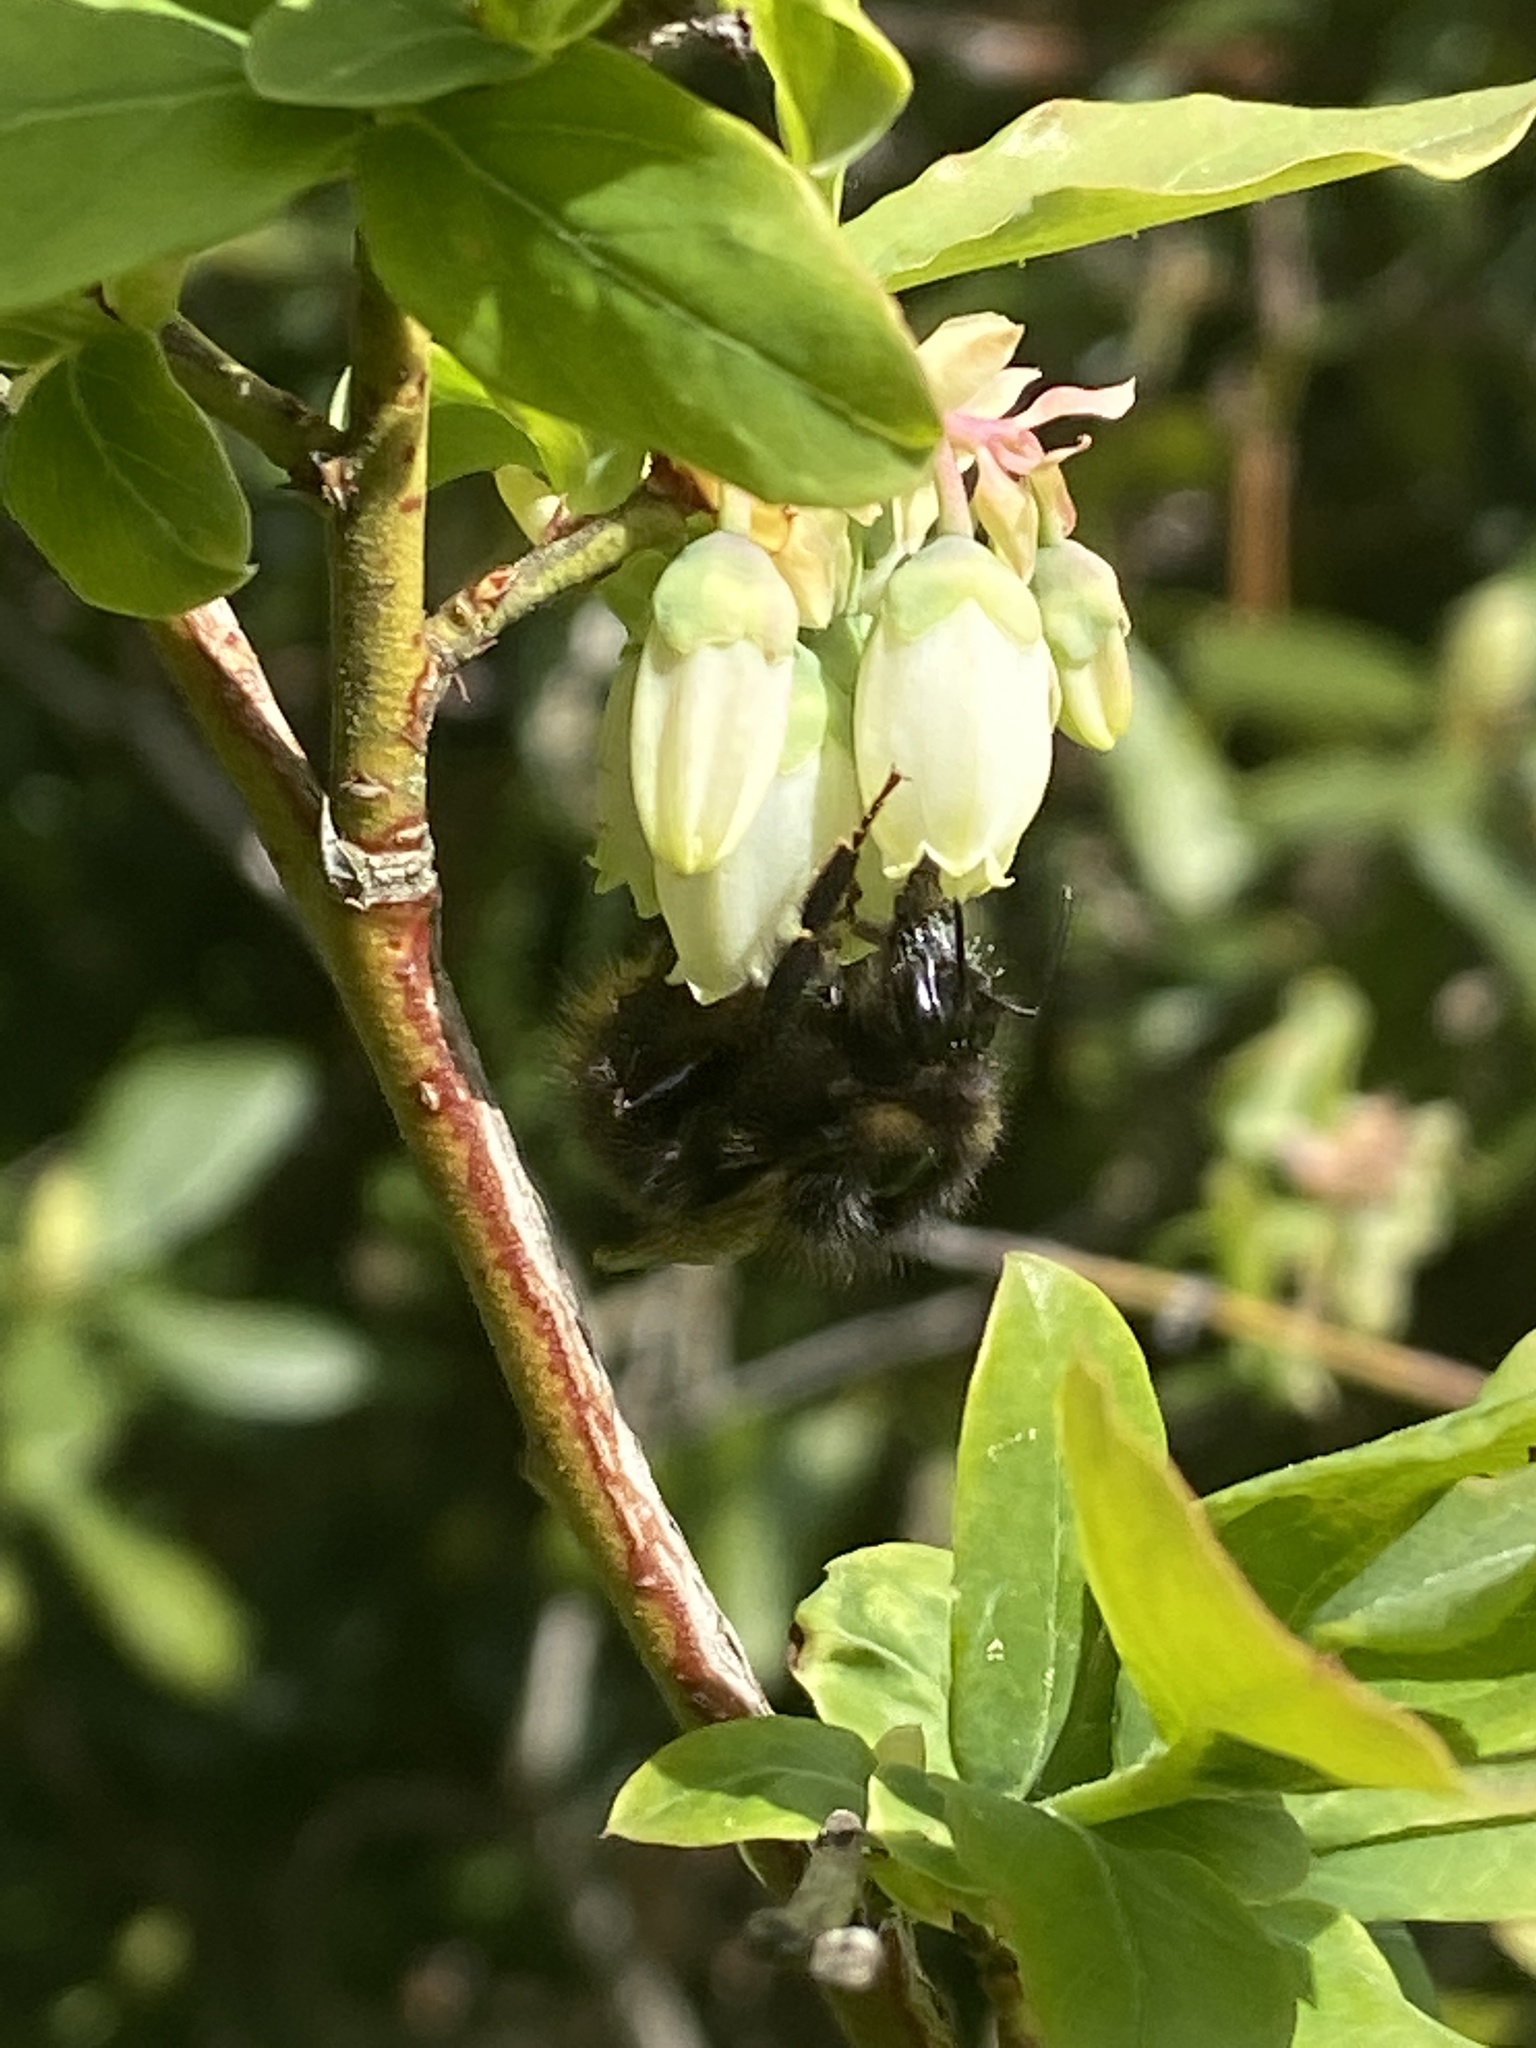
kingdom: Animalia
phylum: Arthropoda
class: Insecta
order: Hymenoptera
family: Apidae
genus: Bombus
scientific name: Bombus pratorum
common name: Early humble-bee
